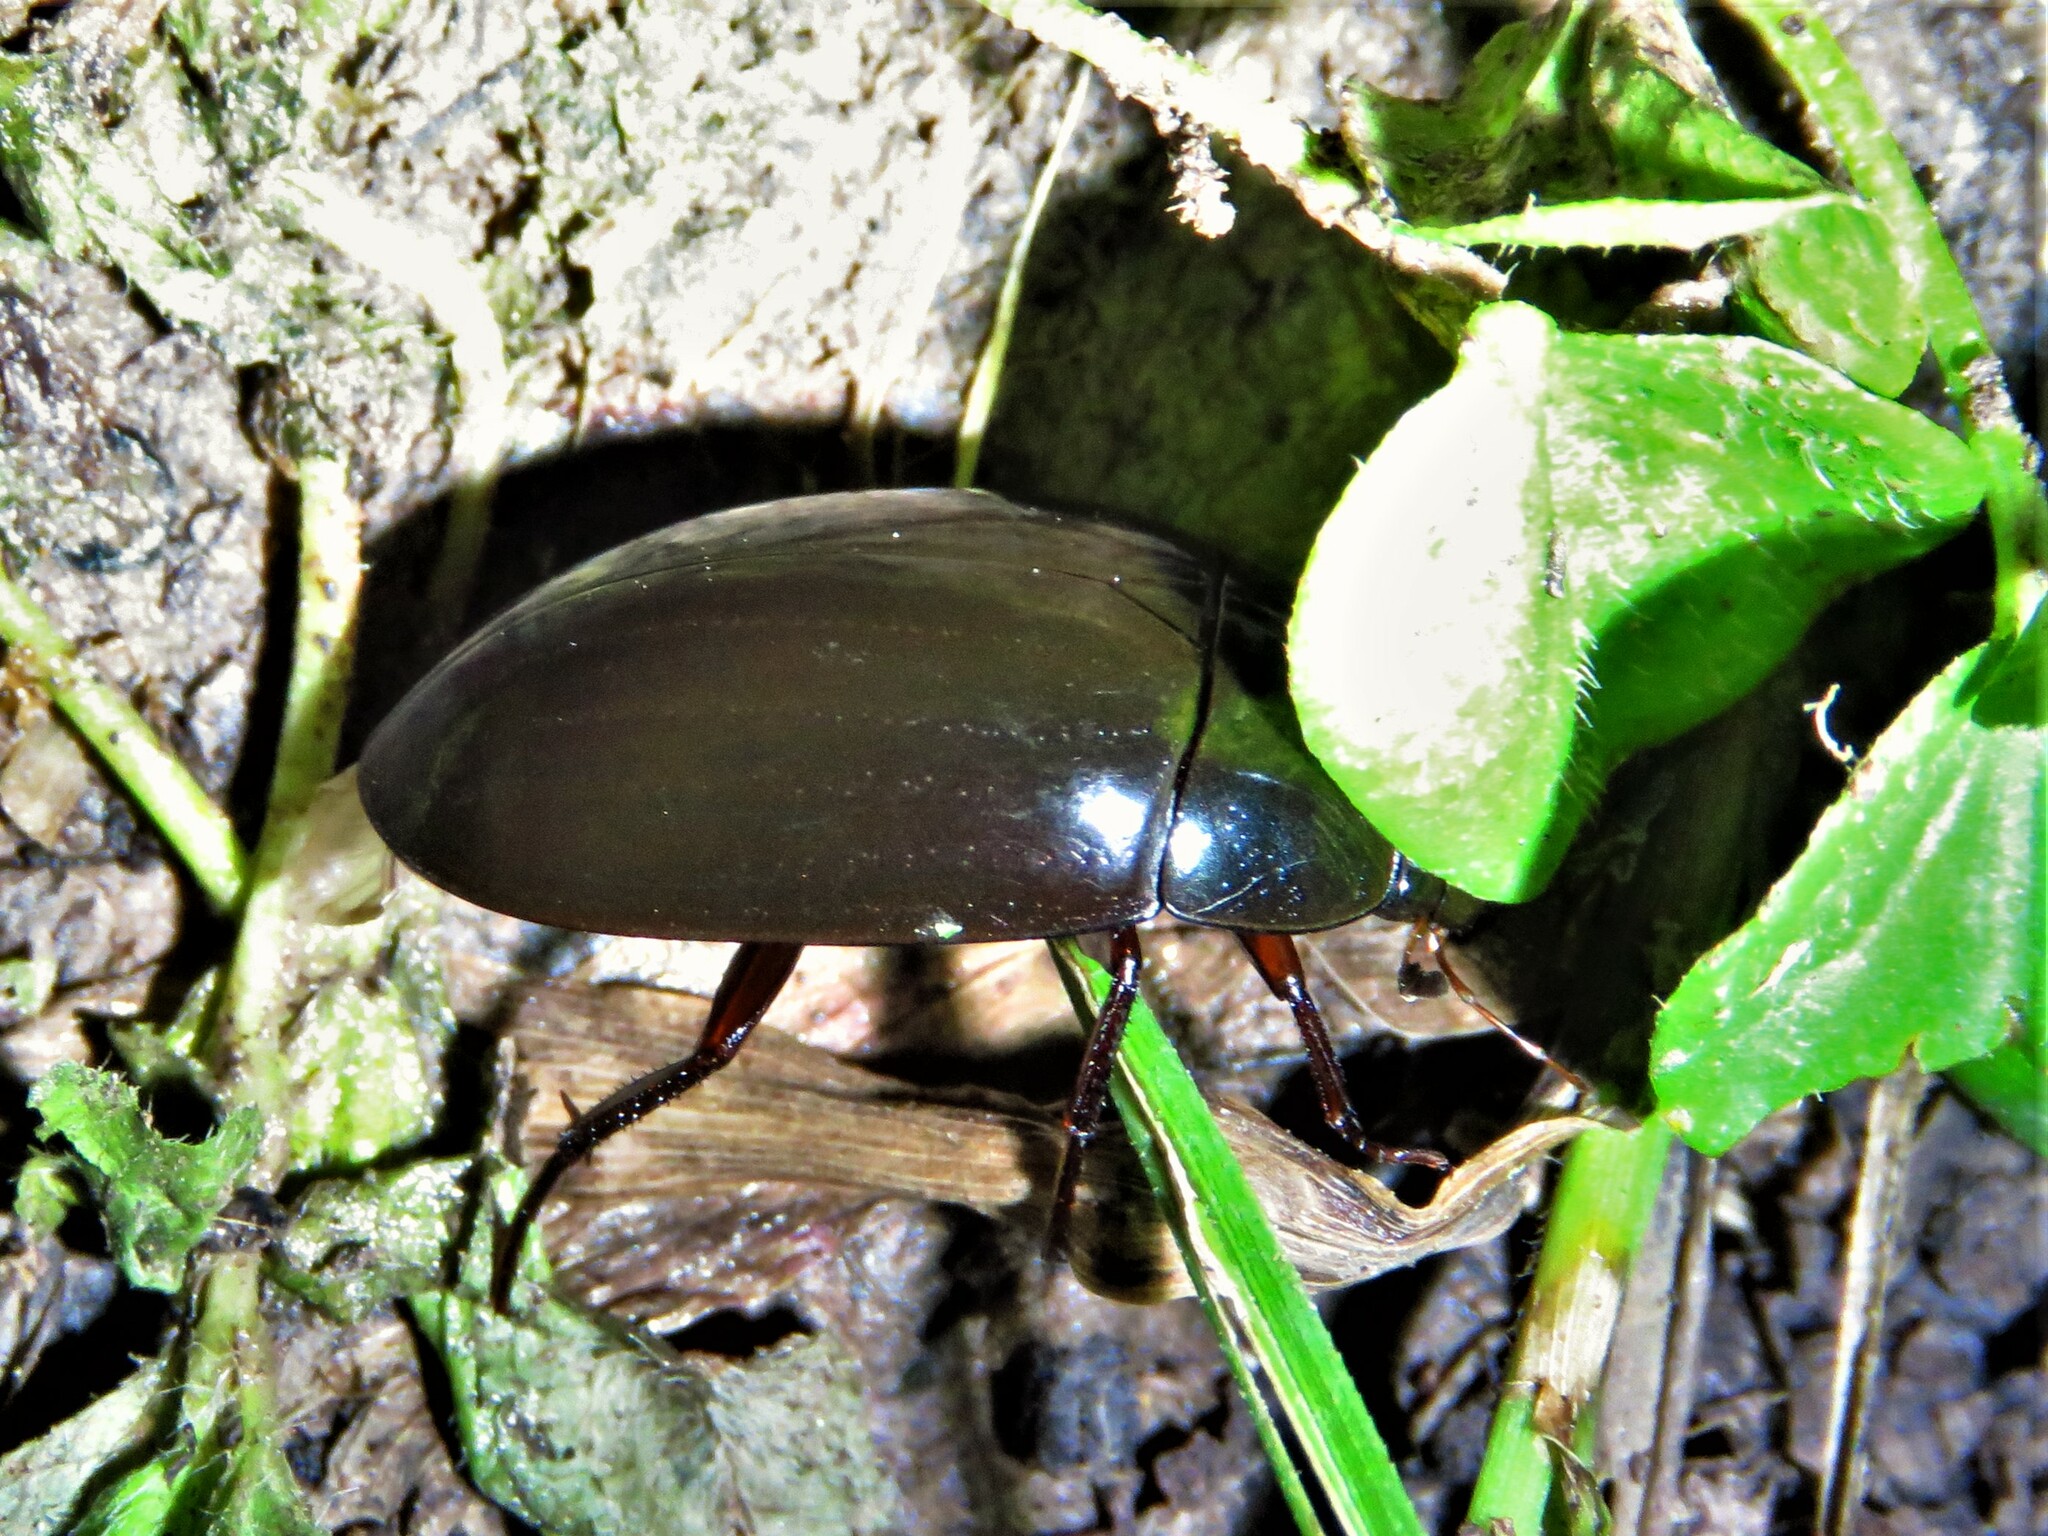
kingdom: Animalia
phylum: Arthropoda
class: Insecta
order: Coleoptera
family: Hydrophilidae
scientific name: Hydrophilidae
